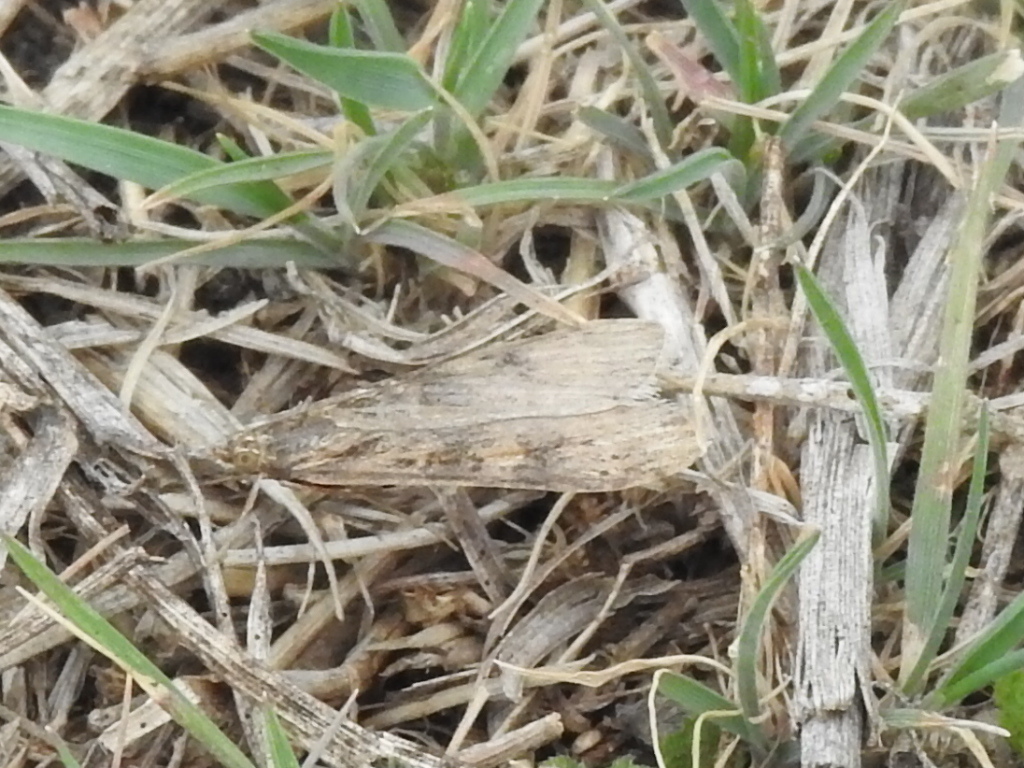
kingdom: Animalia
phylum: Arthropoda
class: Insecta
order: Lepidoptera
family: Crambidae
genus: Nomophila
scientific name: Nomophila nearctica
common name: American rush veneer
